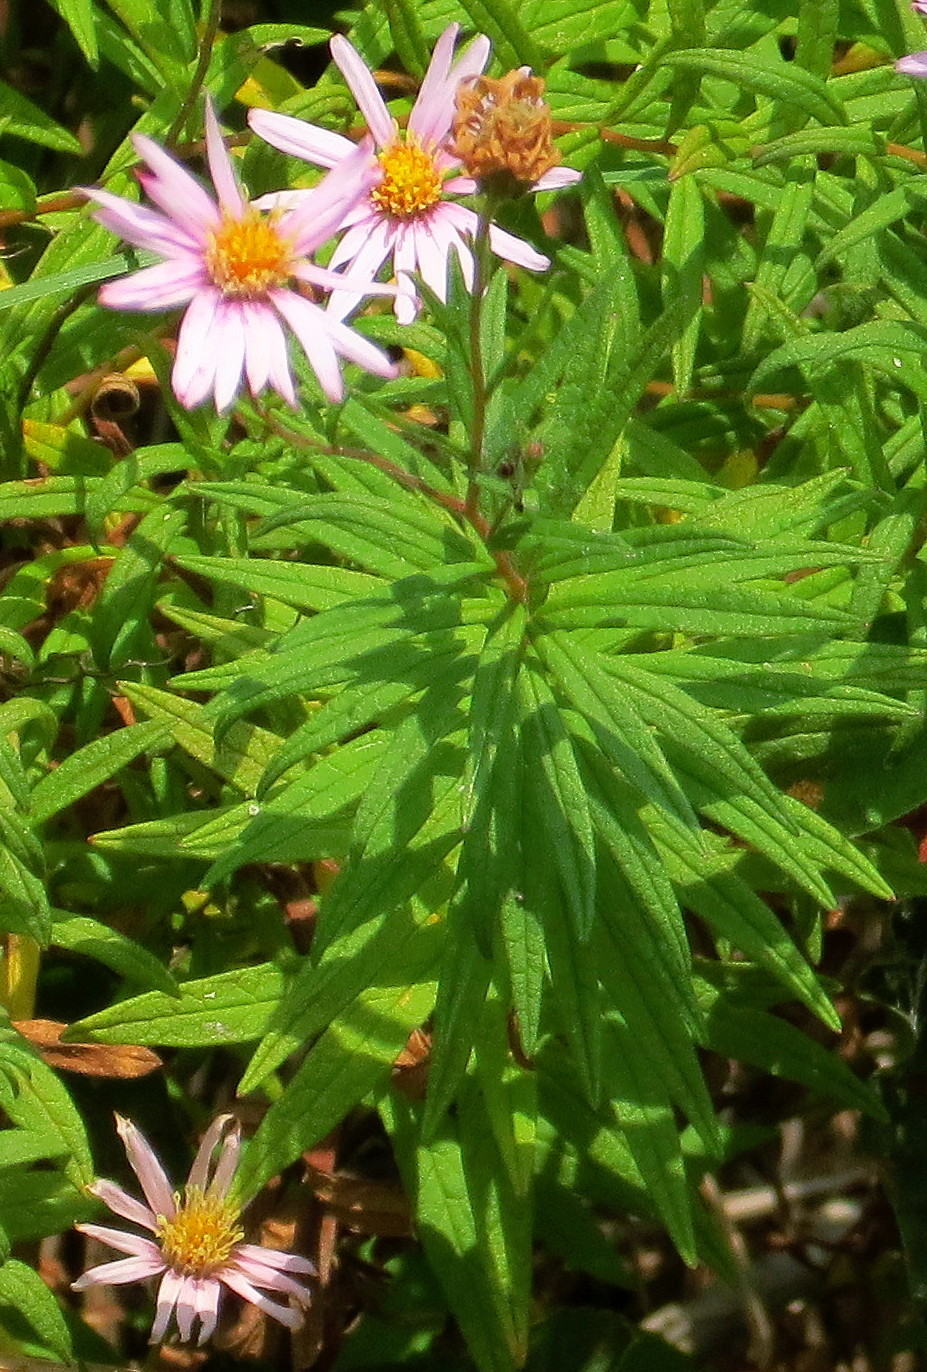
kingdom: Plantae
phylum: Tracheophyta
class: Magnoliopsida
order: Asterales
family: Asteraceae
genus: Oclemena
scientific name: Oclemena nemoralis
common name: Bog aster
